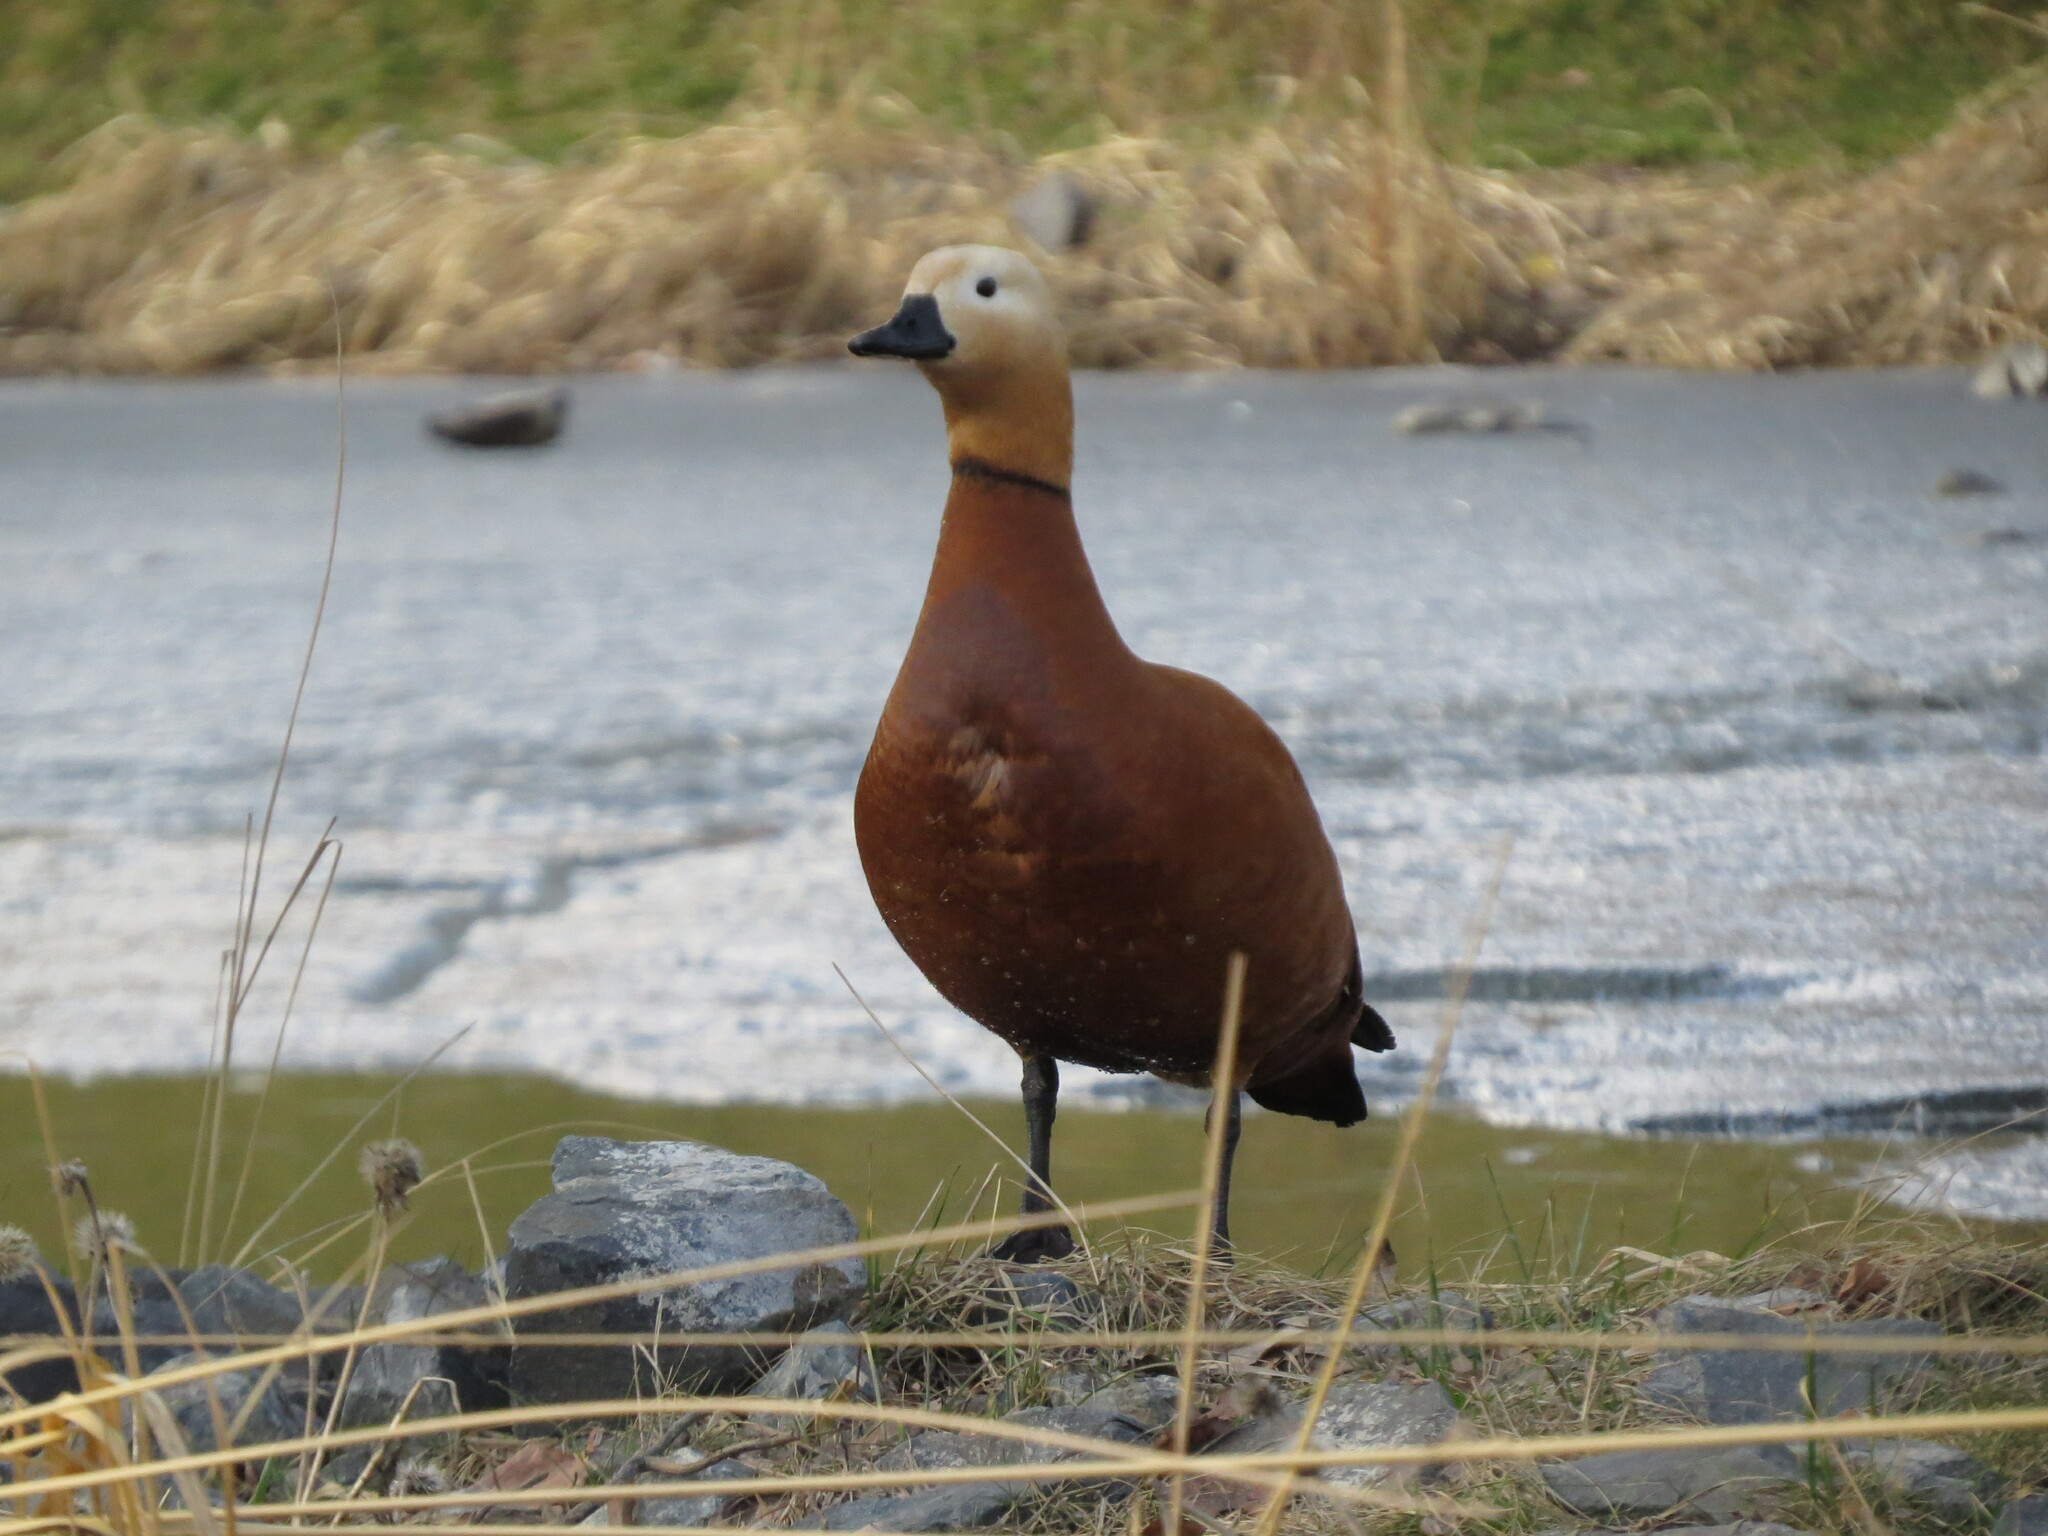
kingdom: Animalia
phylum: Chordata
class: Aves
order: Anseriformes
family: Anatidae
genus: Tadorna
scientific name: Tadorna ferruginea
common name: Ruddy shelduck
